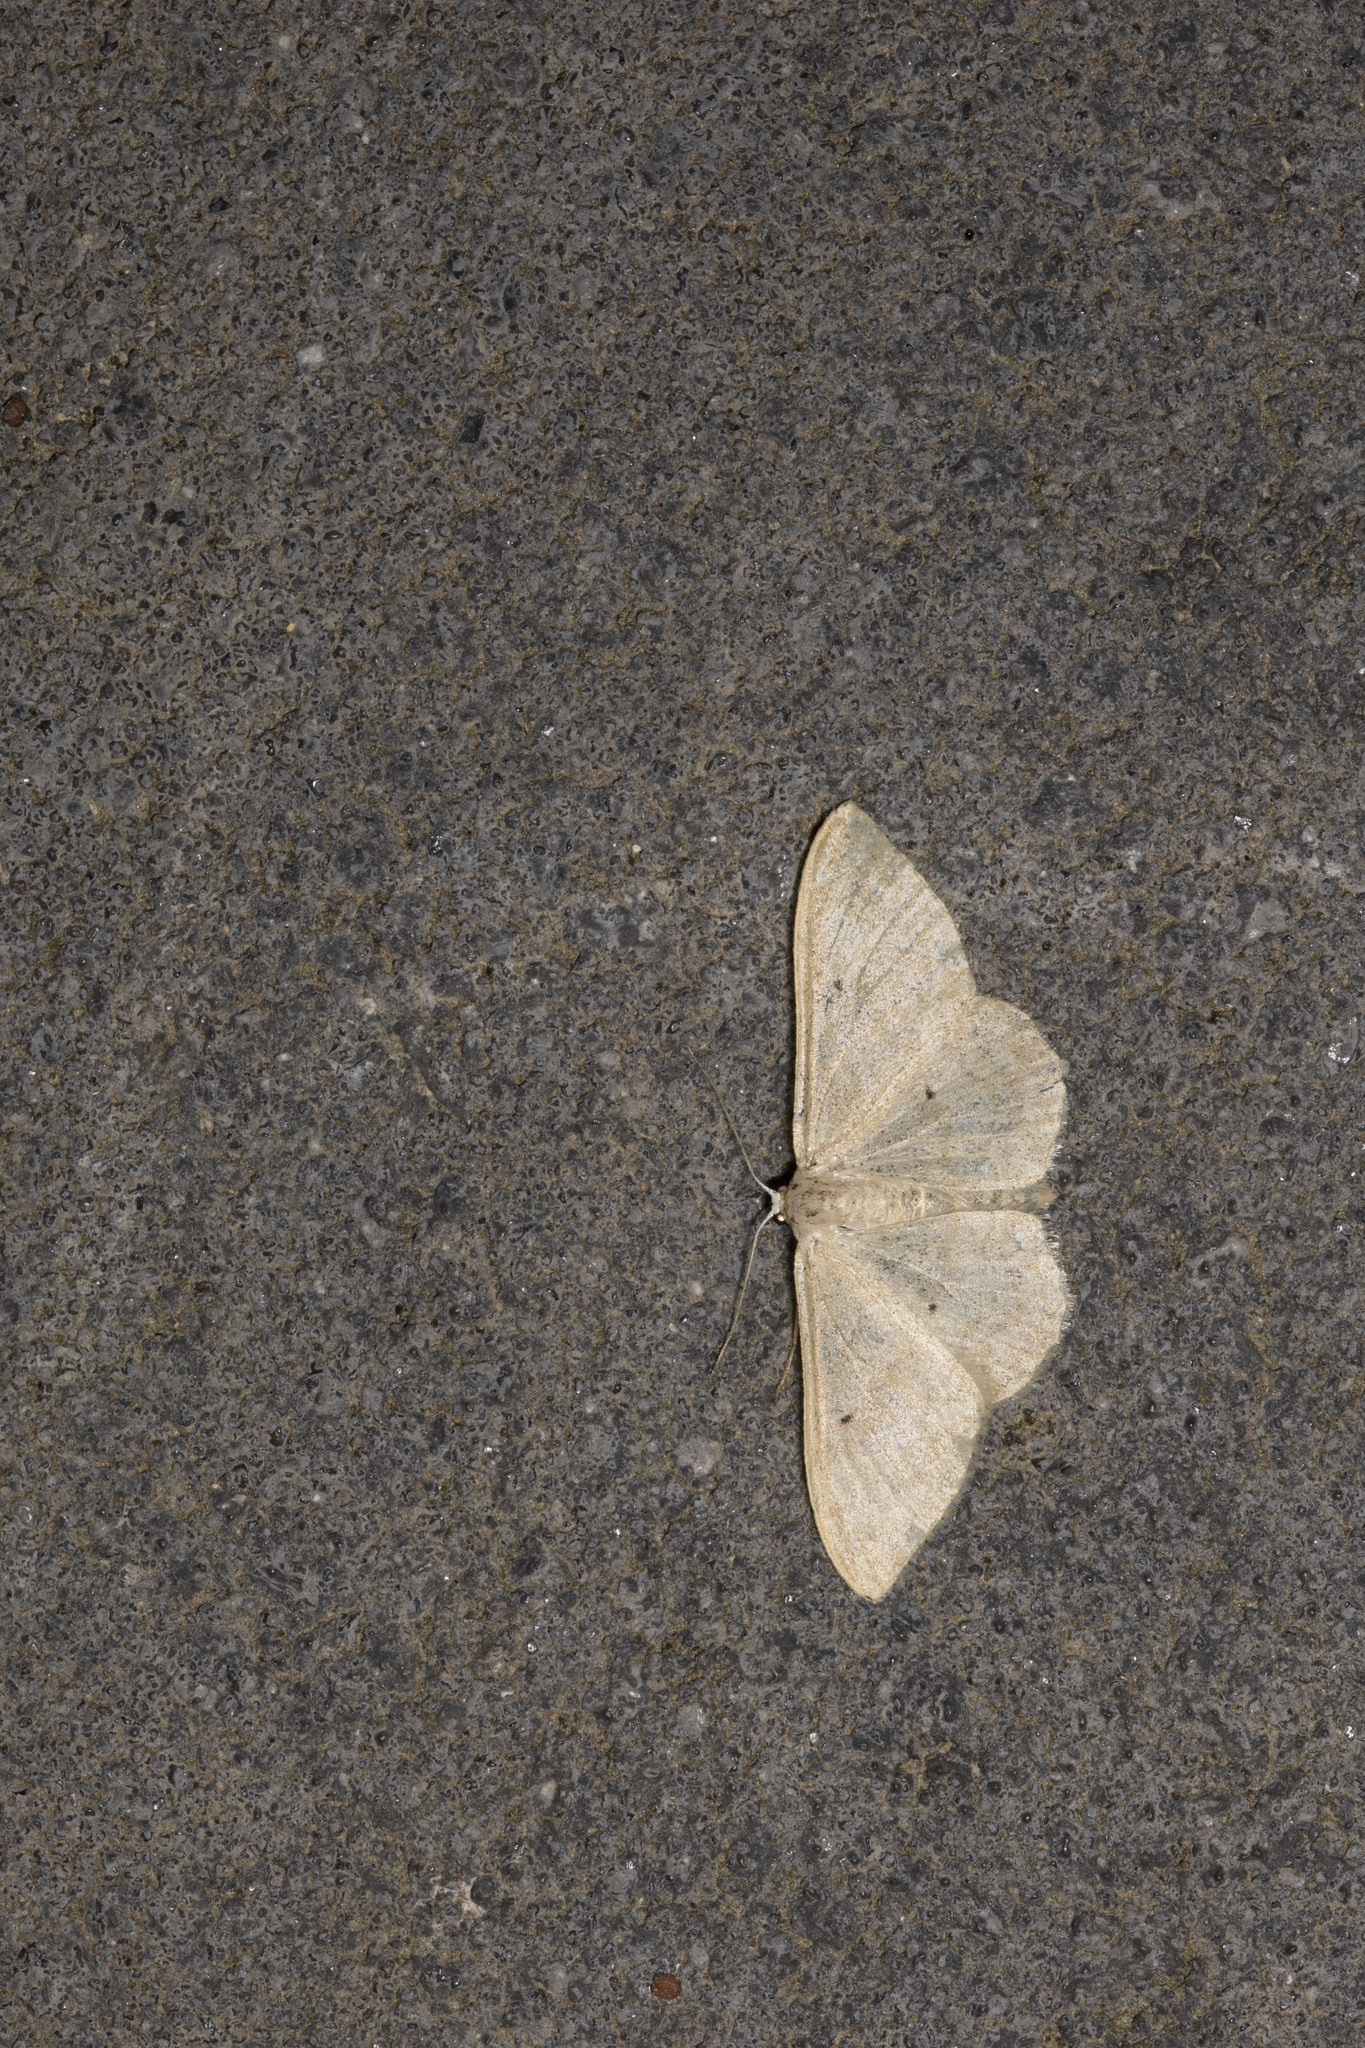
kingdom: Animalia
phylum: Arthropoda
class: Insecta
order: Lepidoptera
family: Geometridae
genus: Idaea
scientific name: Idaea straminata
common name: Plain wave
